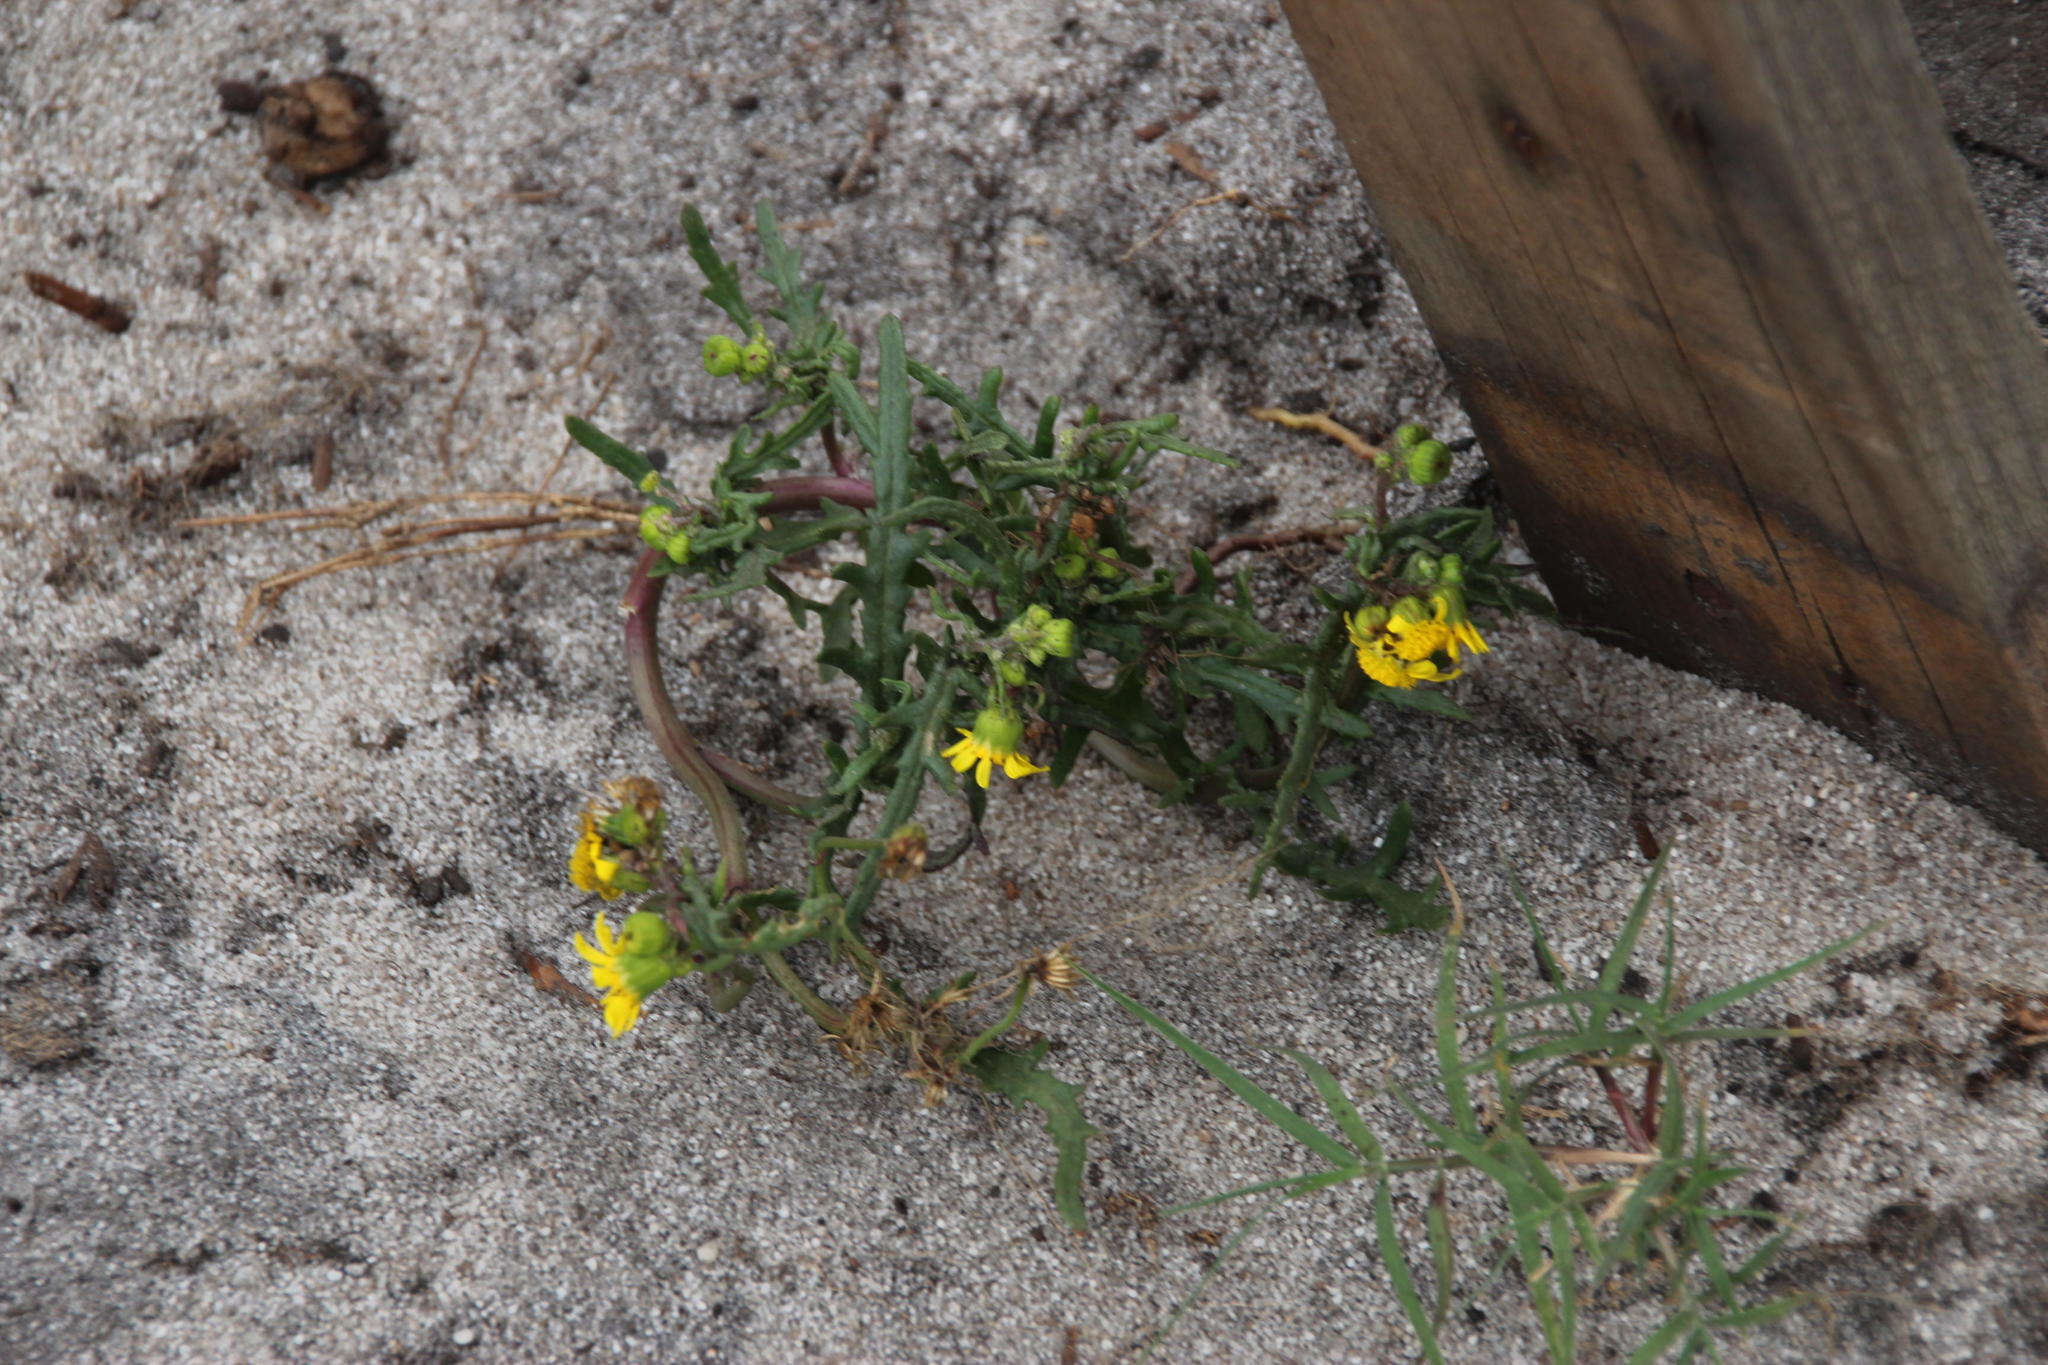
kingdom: Plantae
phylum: Tracheophyta
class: Magnoliopsida
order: Asterales
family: Asteraceae
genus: Senecio
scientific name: Senecio littoreus
